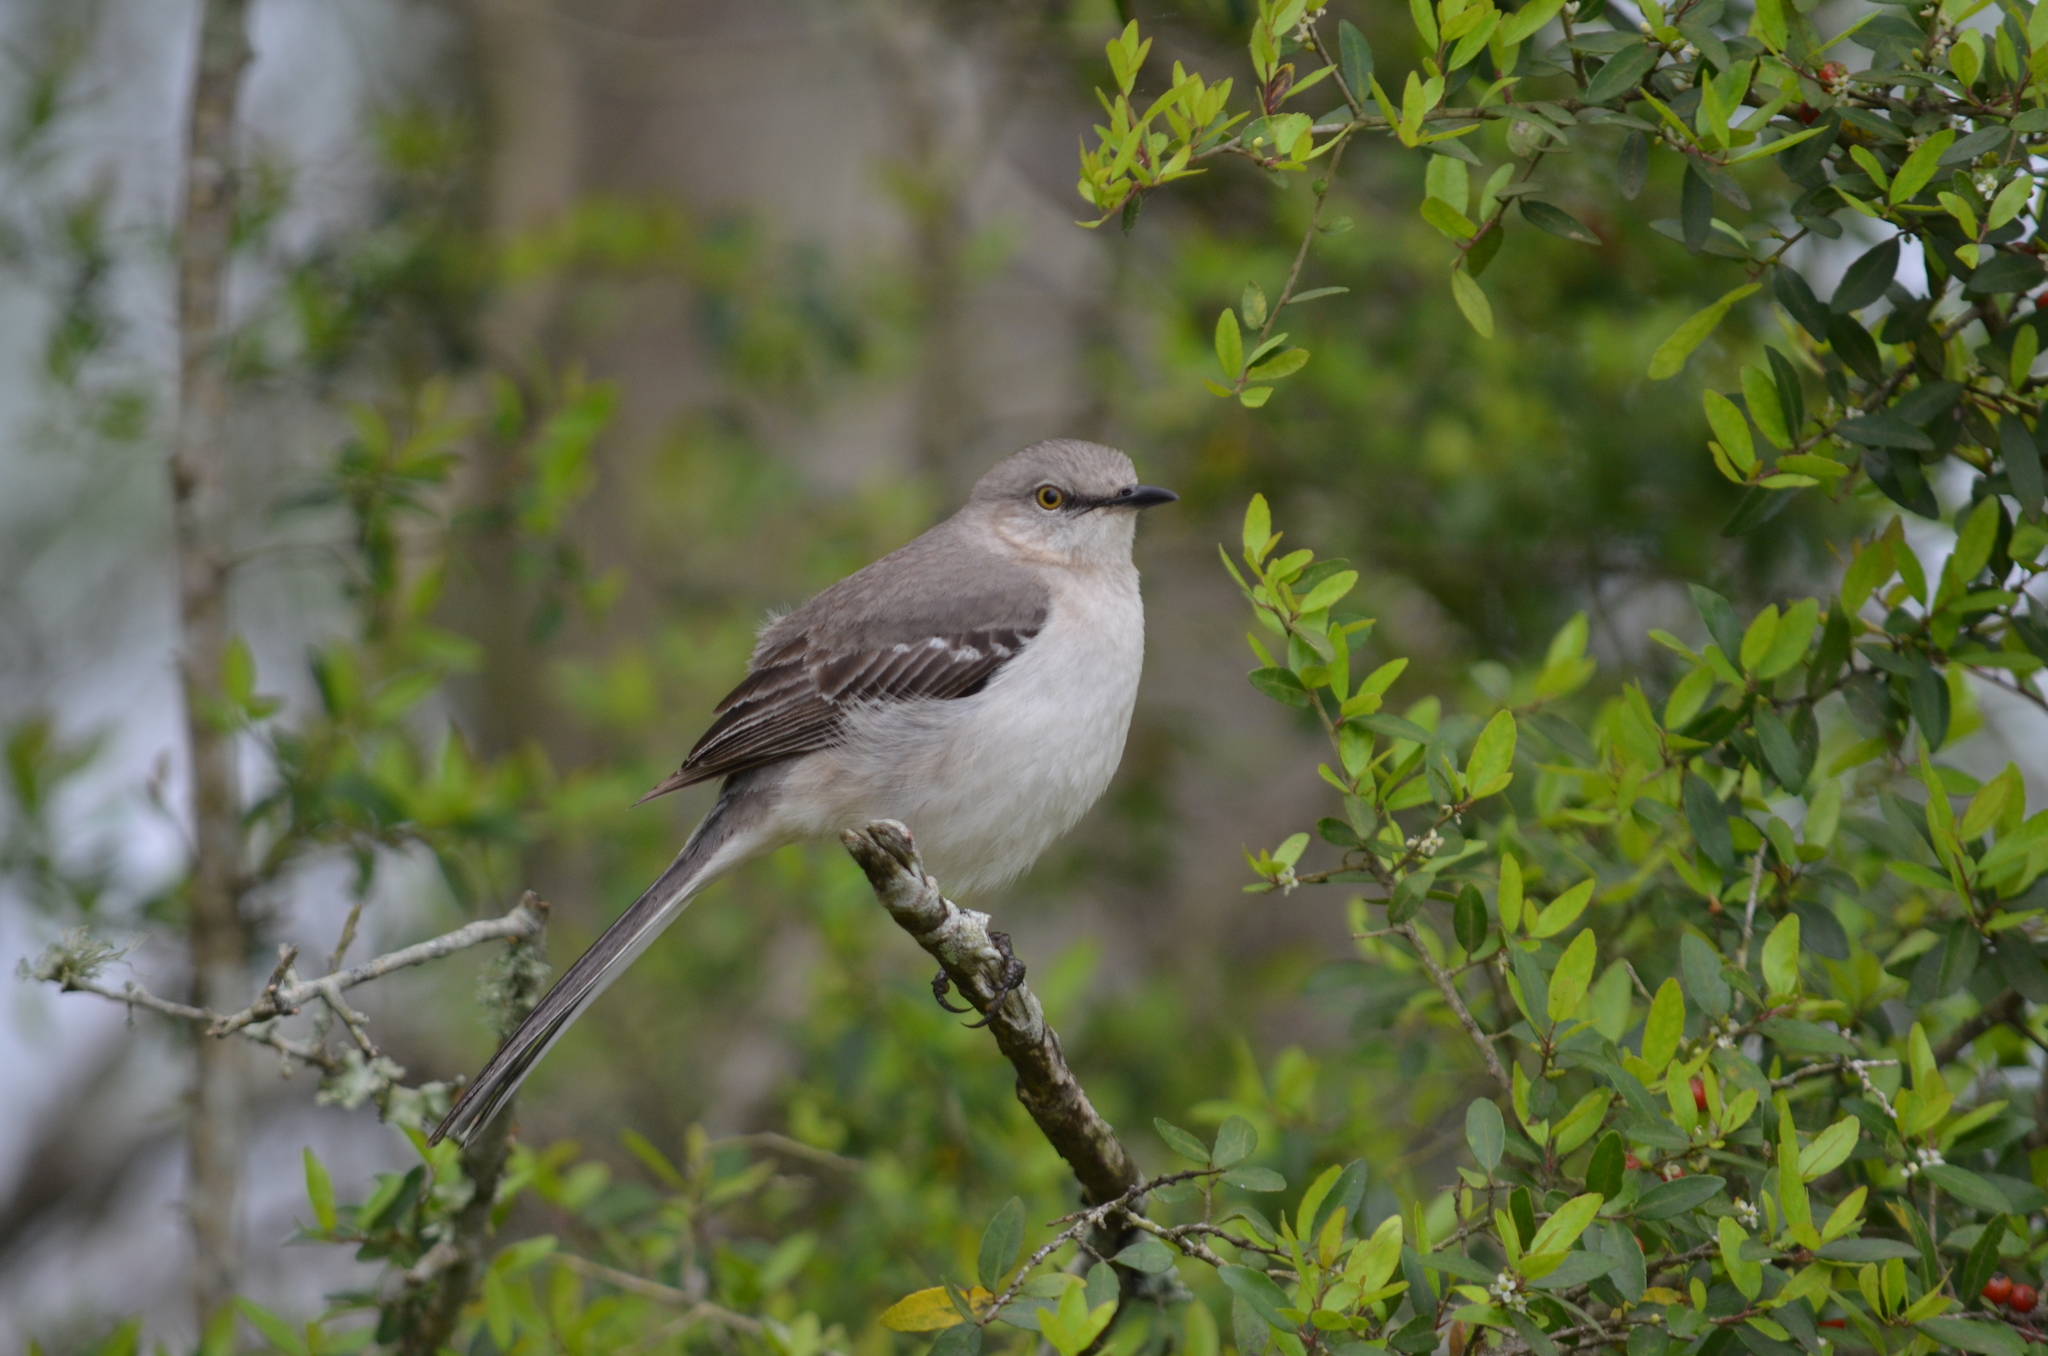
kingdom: Animalia
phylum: Chordata
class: Aves
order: Passeriformes
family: Mimidae
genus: Mimus
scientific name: Mimus polyglottos
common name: Northern mockingbird
